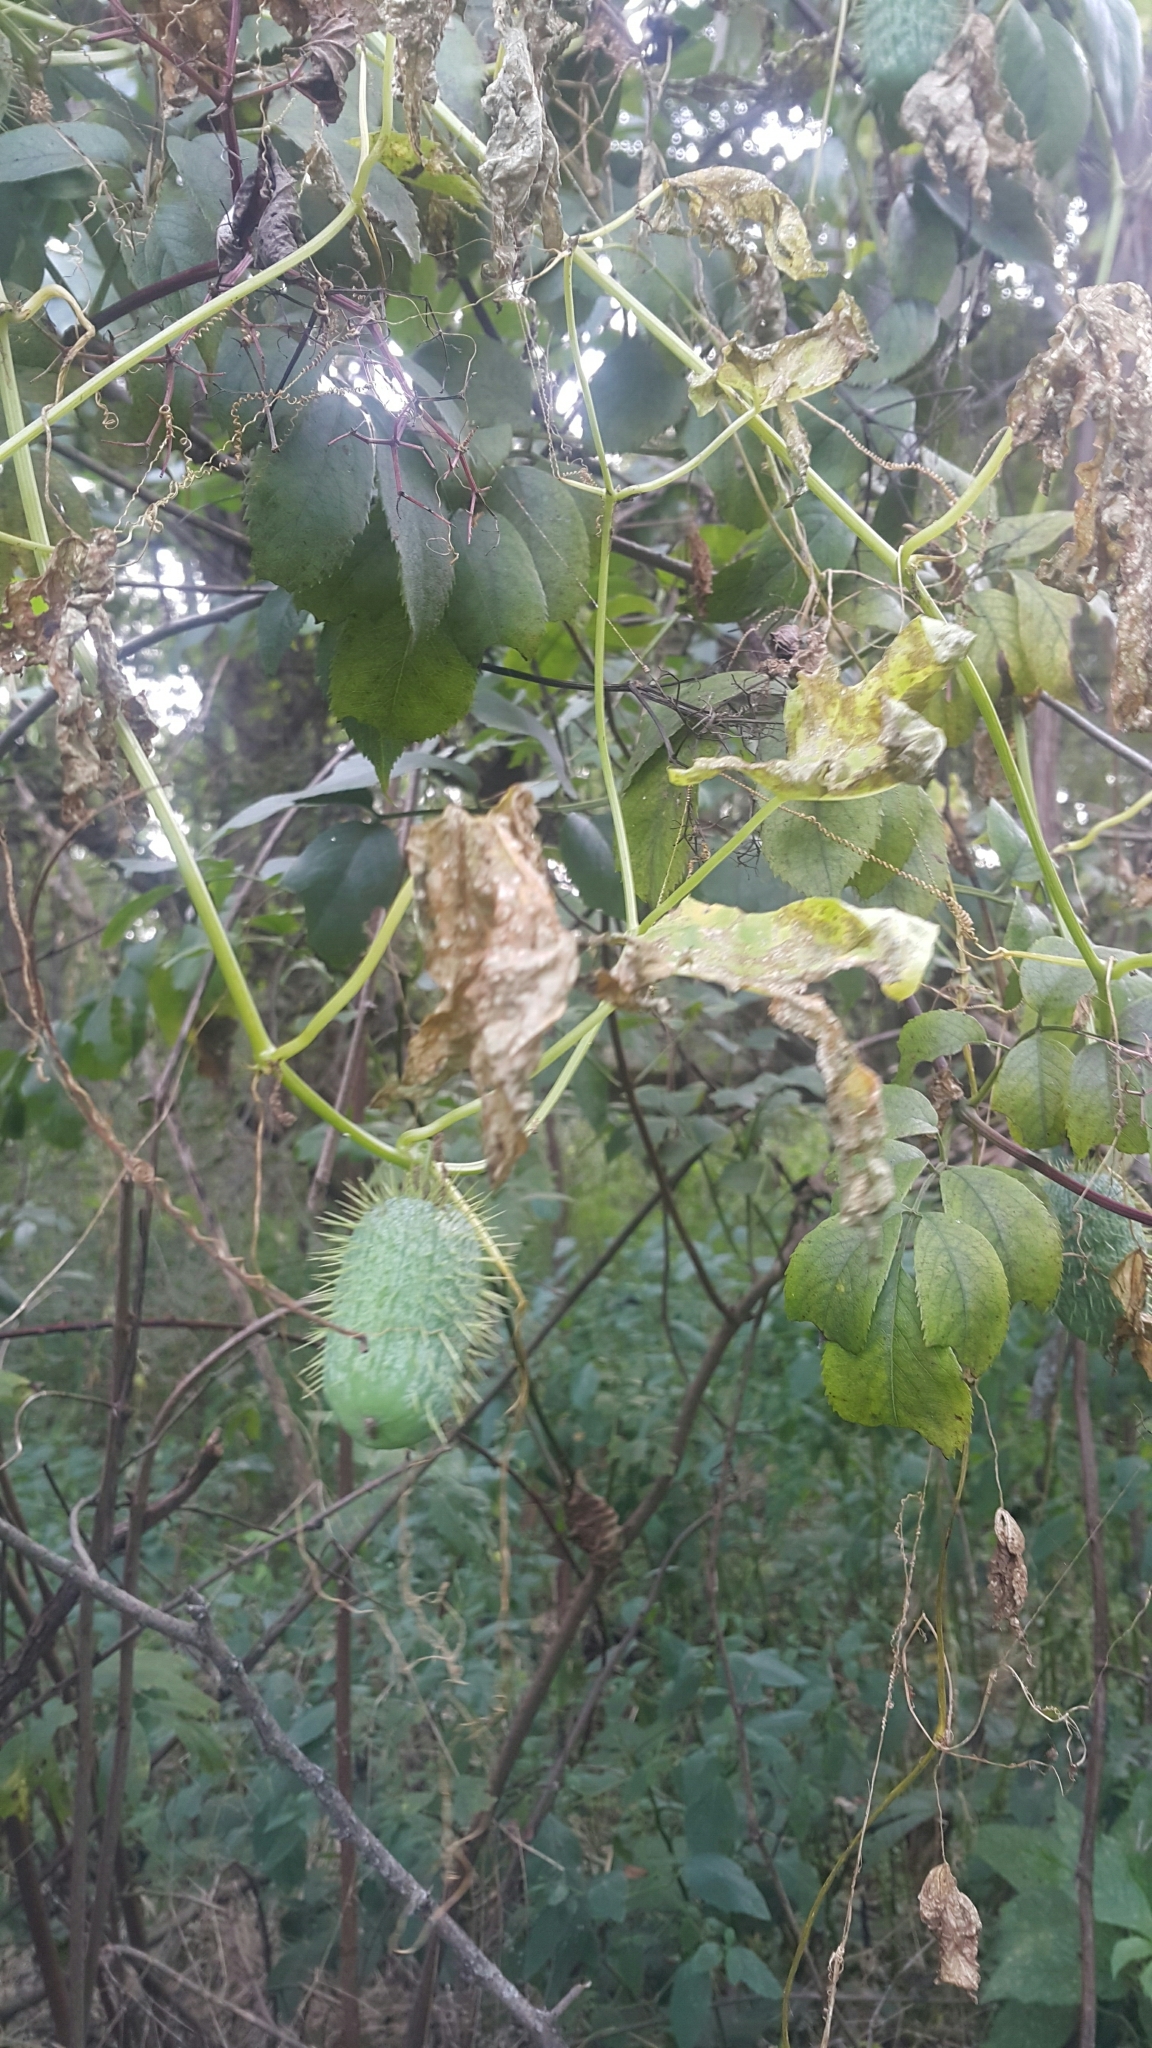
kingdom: Plantae
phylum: Tracheophyta
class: Magnoliopsida
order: Cucurbitales
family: Cucurbitaceae
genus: Echinocystis
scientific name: Echinocystis lobata
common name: Wild cucumber
